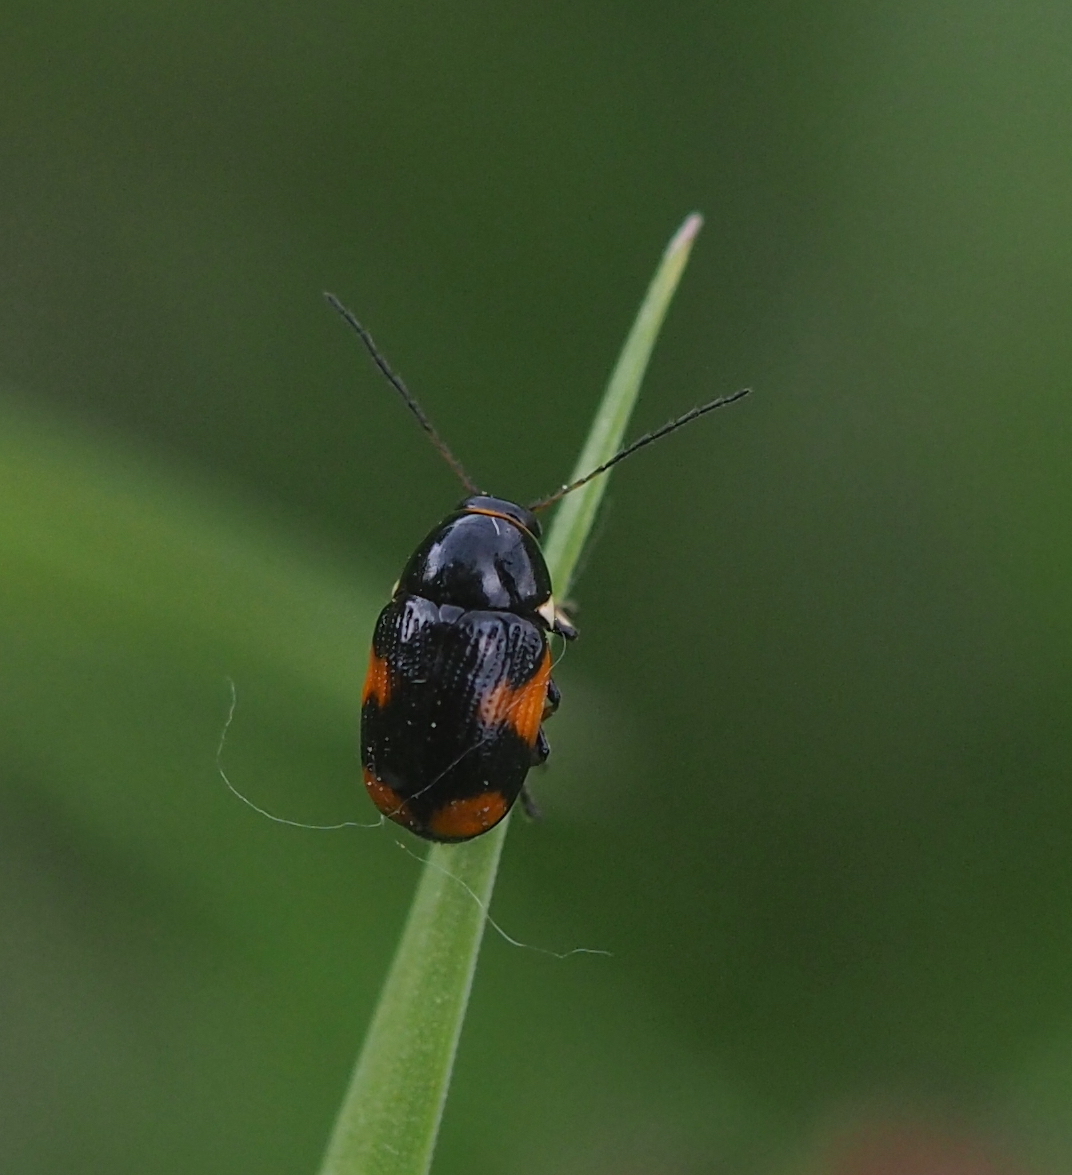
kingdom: Animalia
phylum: Arthropoda
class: Insecta
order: Coleoptera
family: Chrysomelidae
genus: Cryptocephalus
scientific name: Cryptocephalus moraei
